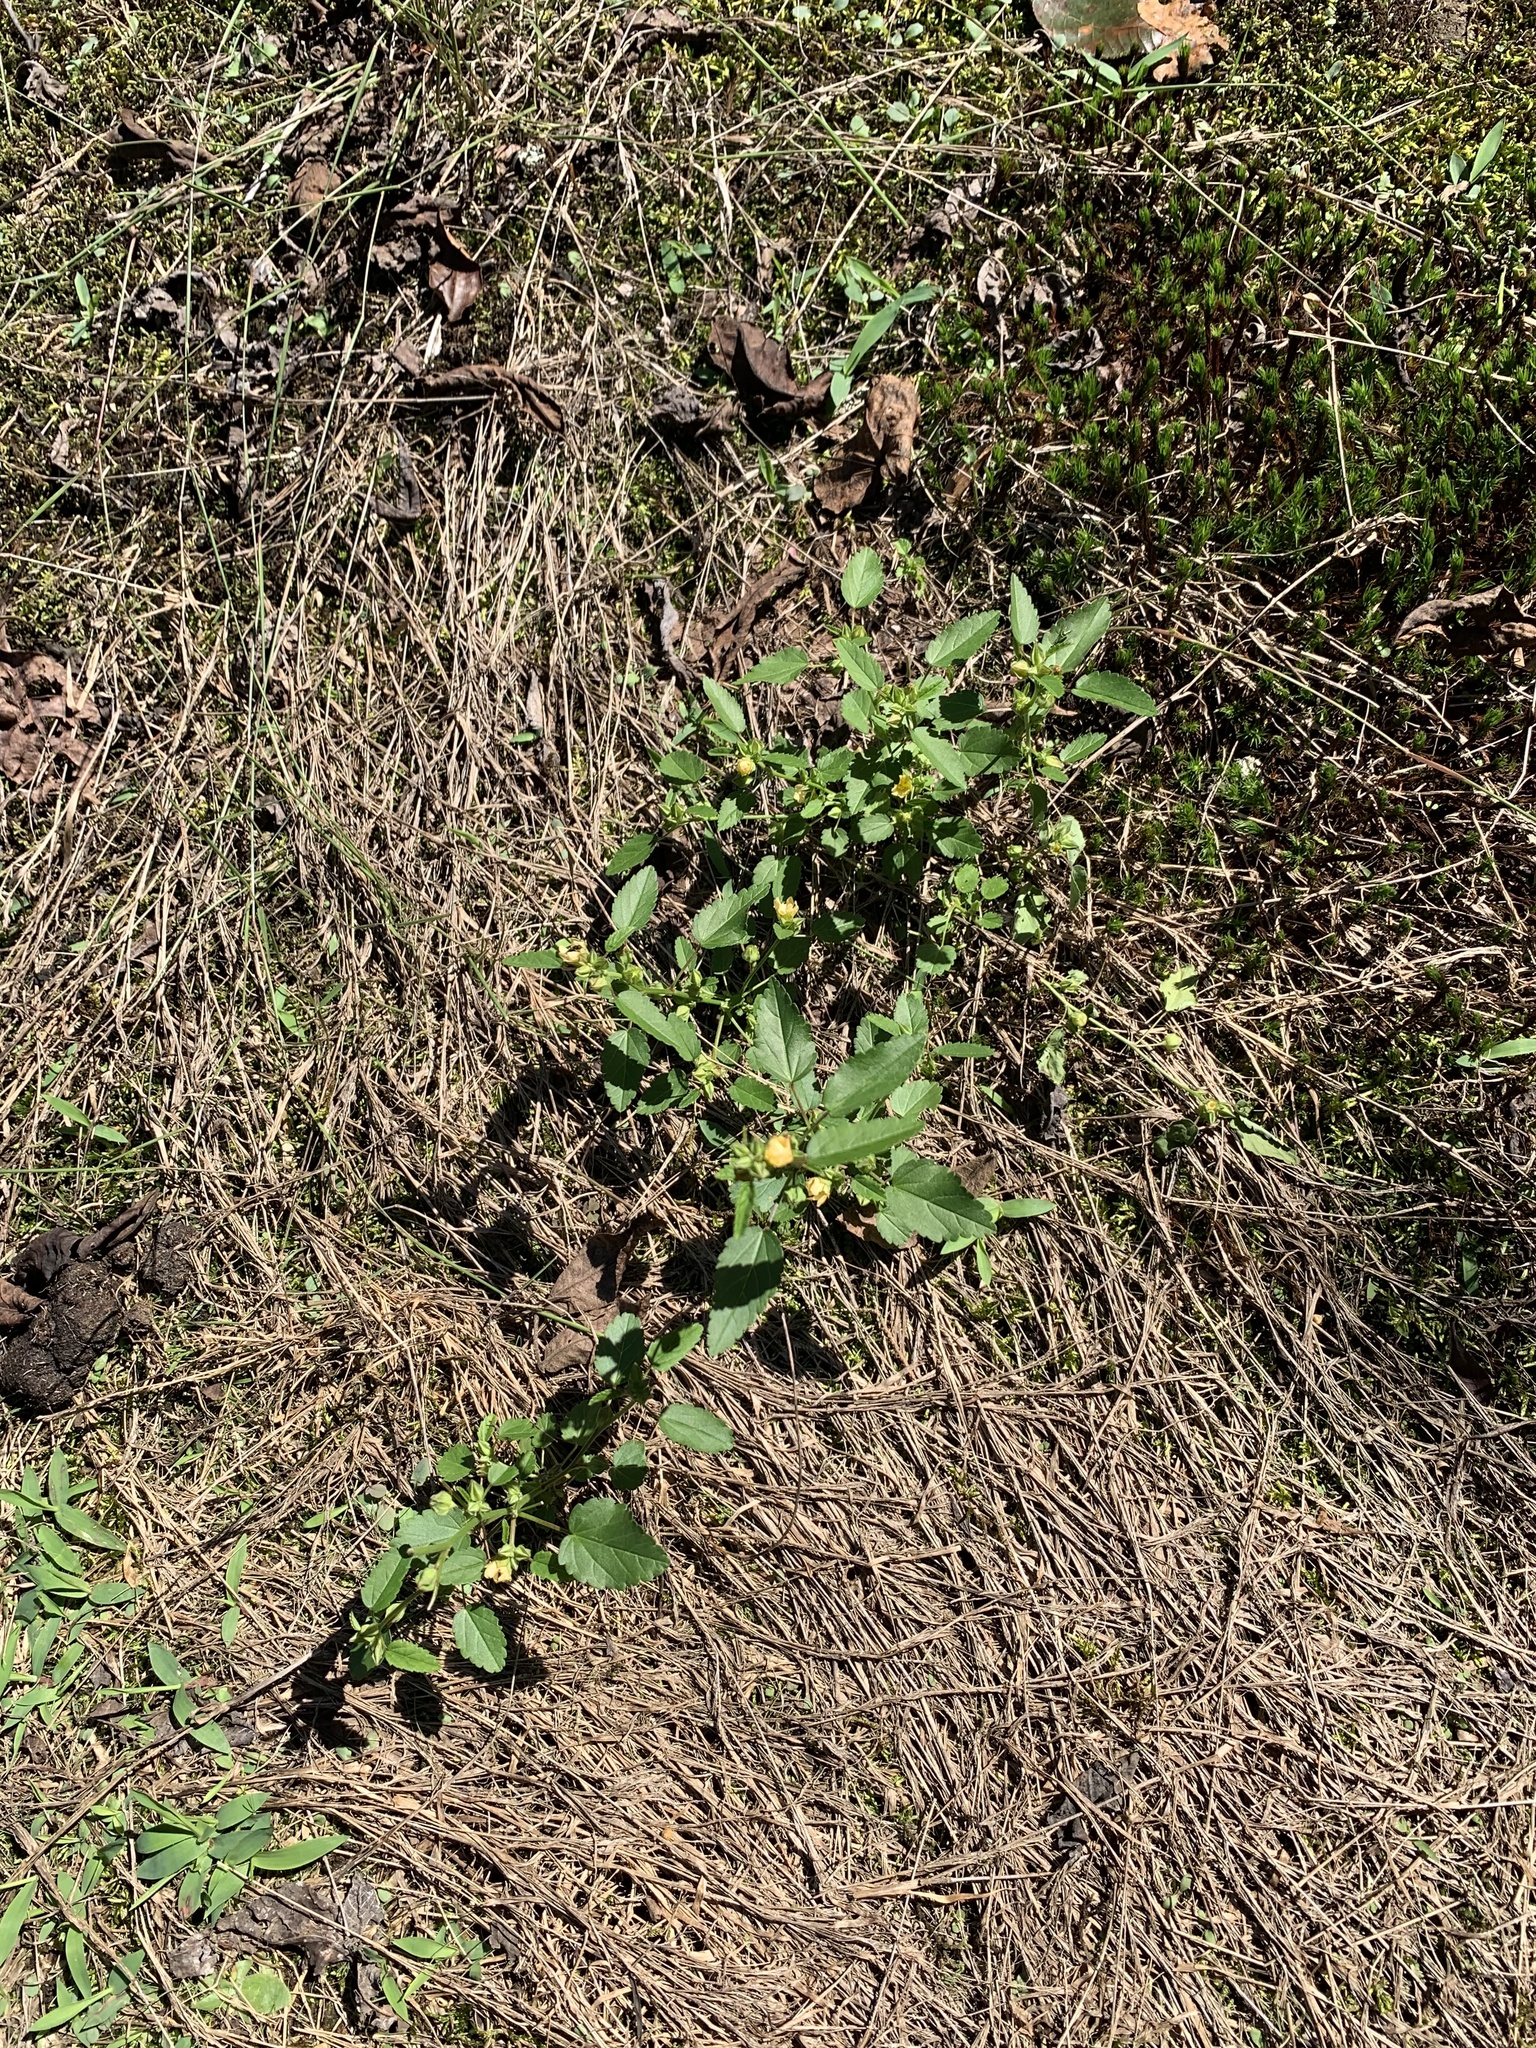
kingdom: Plantae
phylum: Tracheophyta
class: Magnoliopsida
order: Malvales
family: Malvaceae
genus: Sida
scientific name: Sida spinosa
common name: Prickly fanpetals
